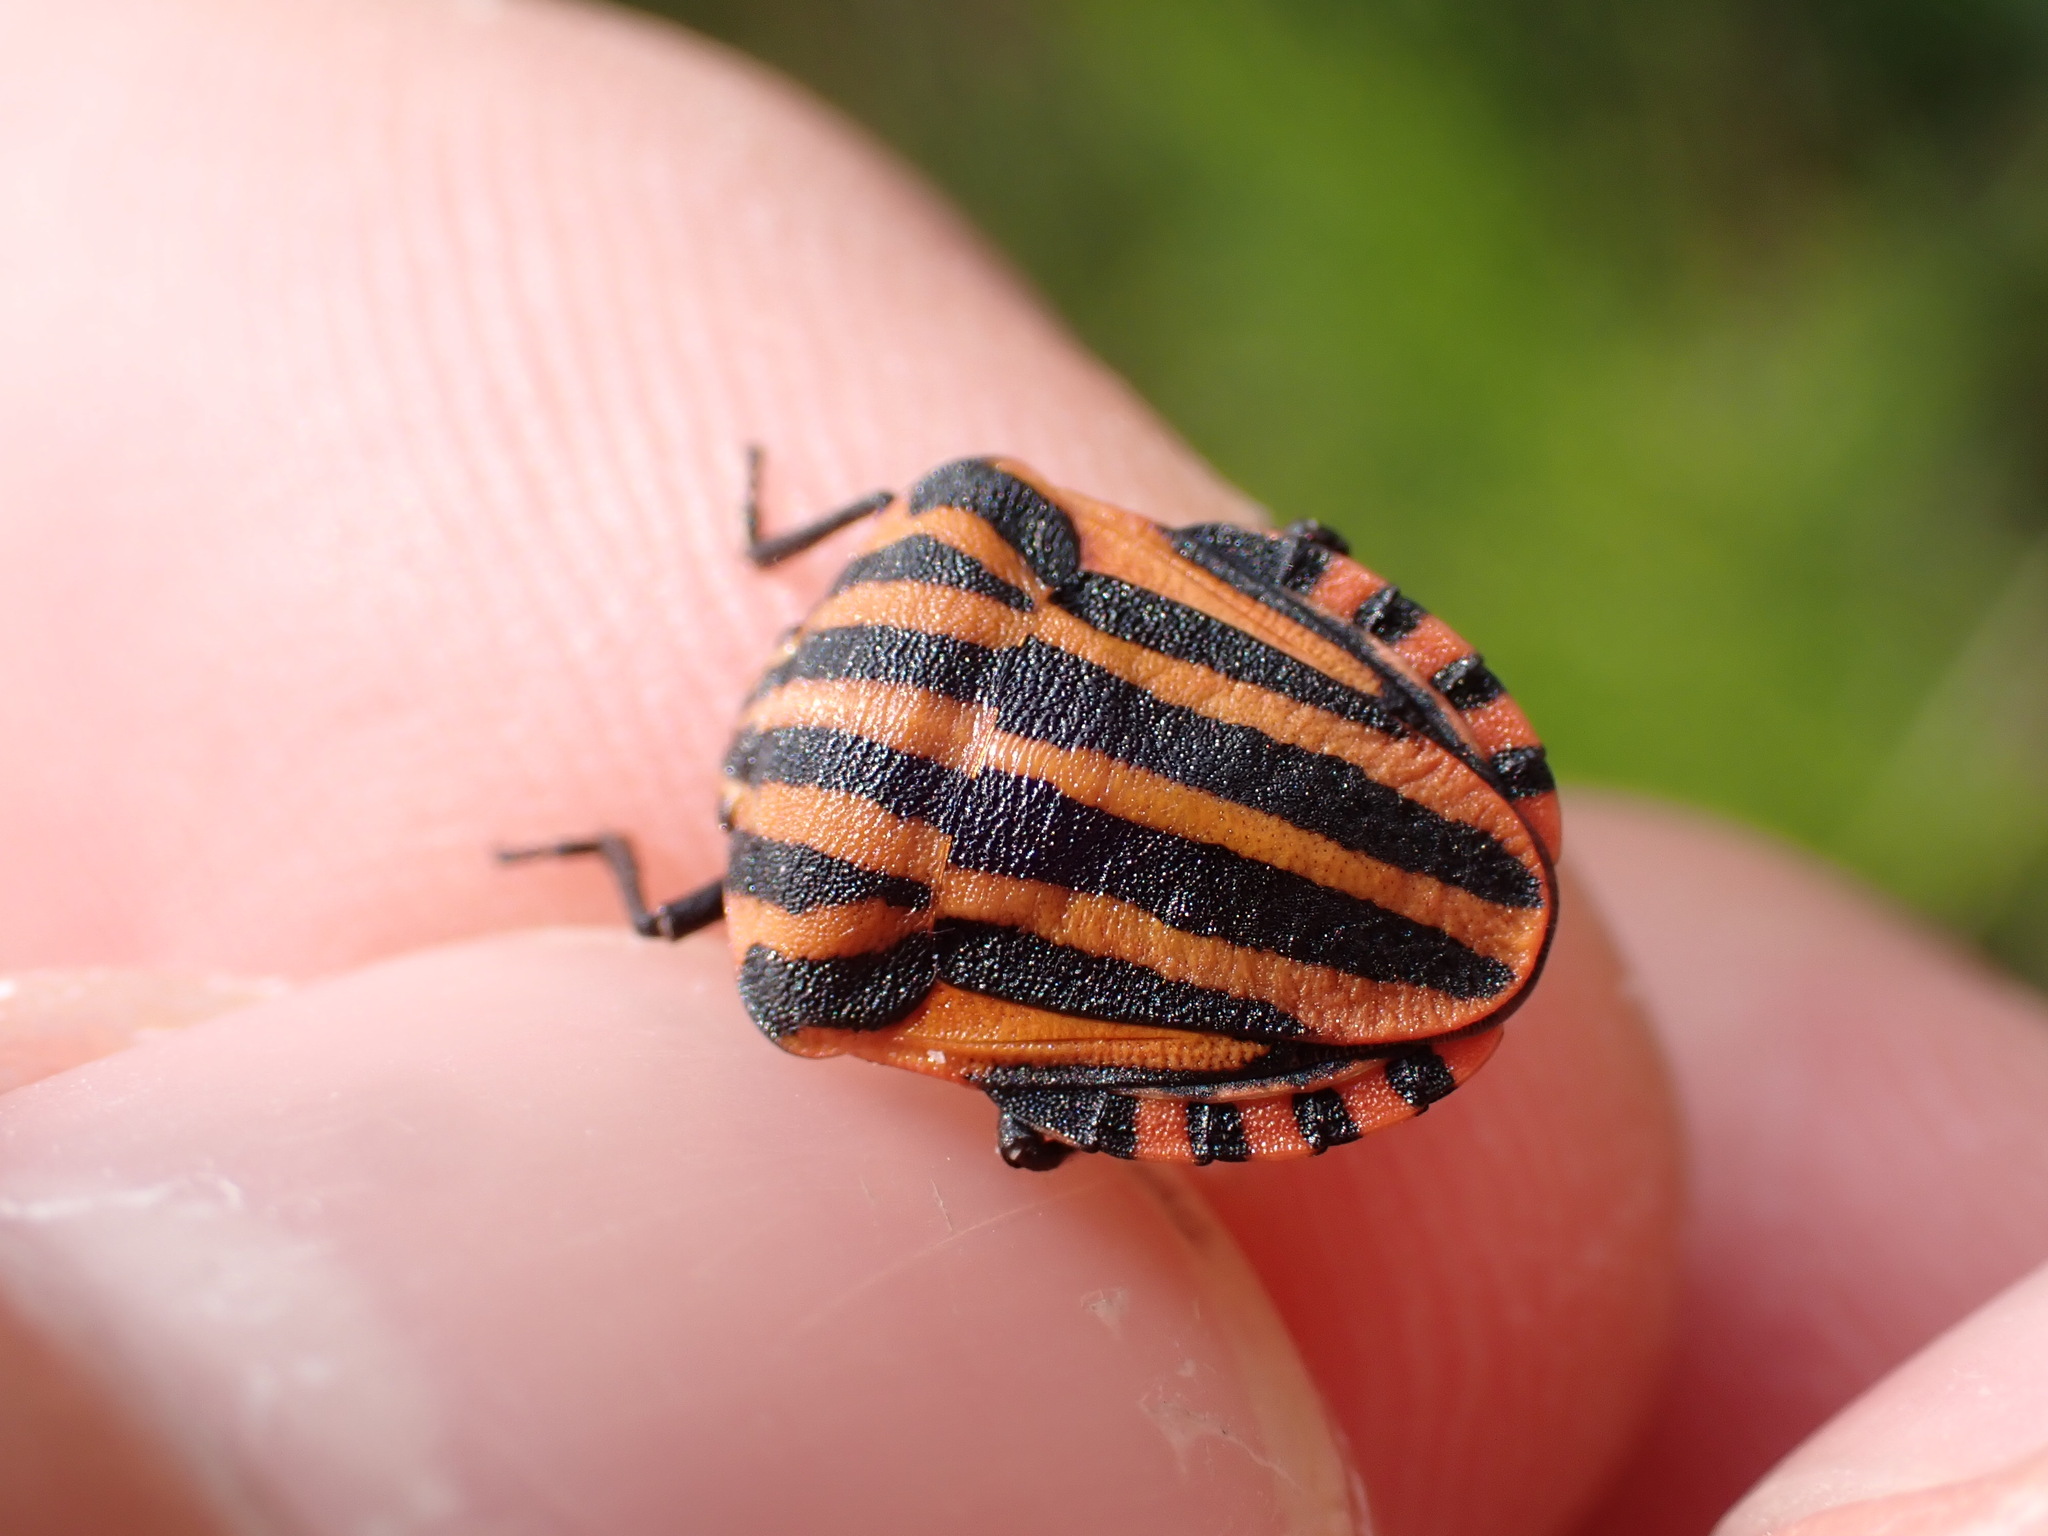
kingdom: Animalia
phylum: Arthropoda
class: Insecta
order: Hemiptera
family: Pentatomidae
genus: Graphosoma
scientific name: Graphosoma italicum
